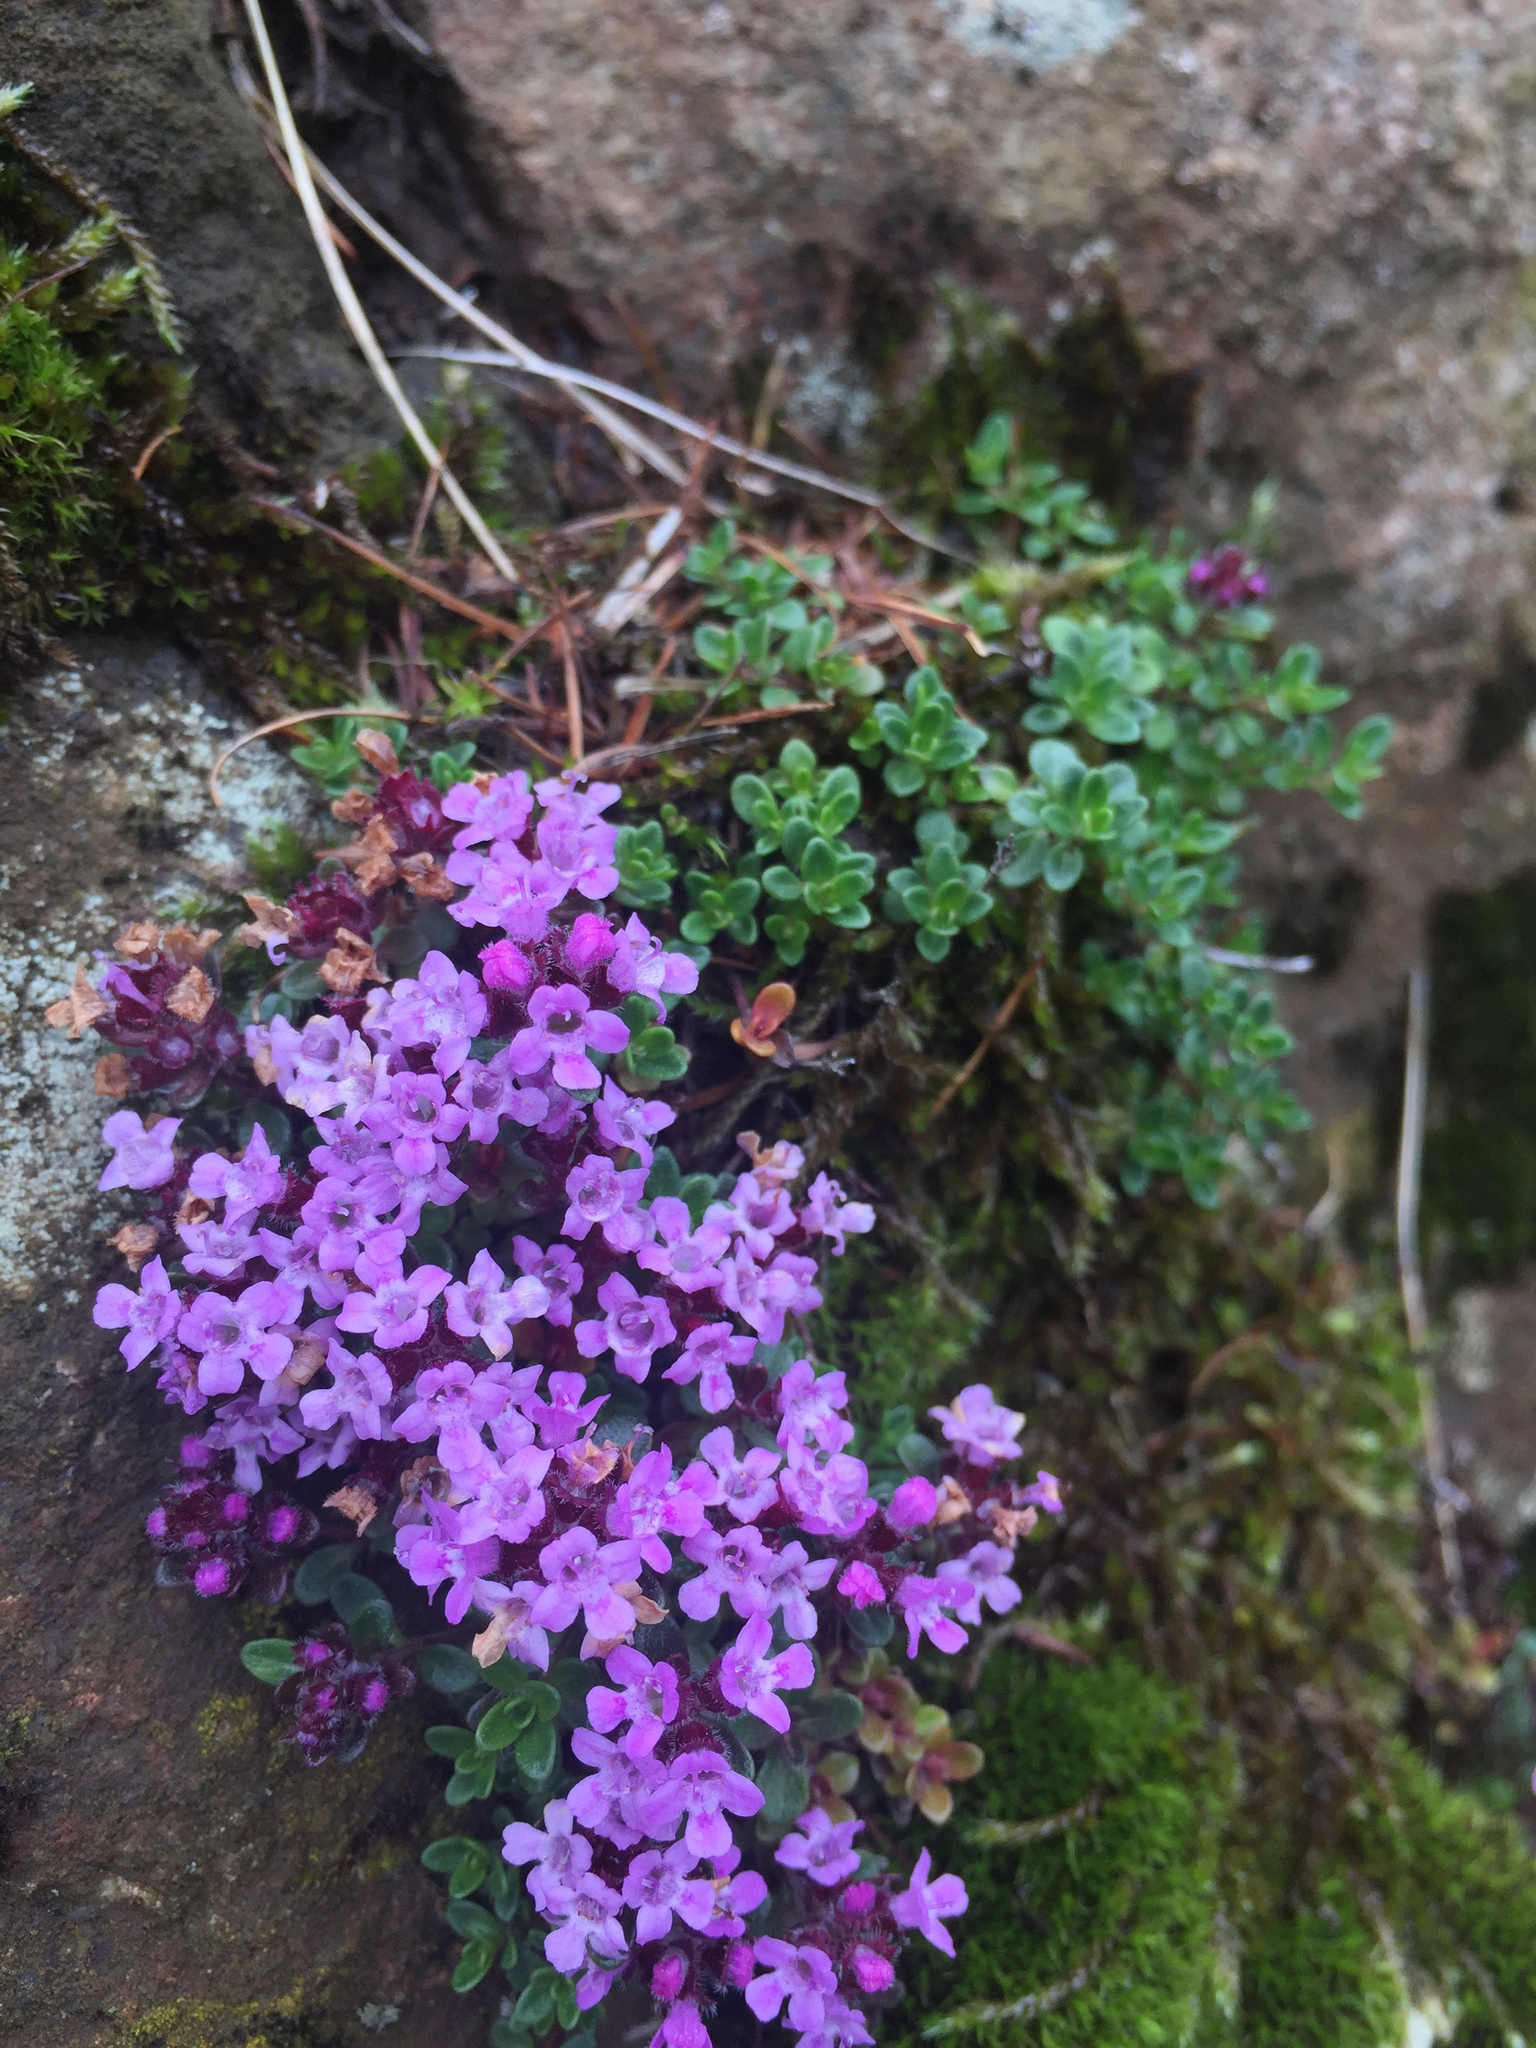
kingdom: Plantae
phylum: Tracheophyta
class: Magnoliopsida
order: Lamiales
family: Lamiaceae
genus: Thymus
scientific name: Thymus praecox
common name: Wild thyme
